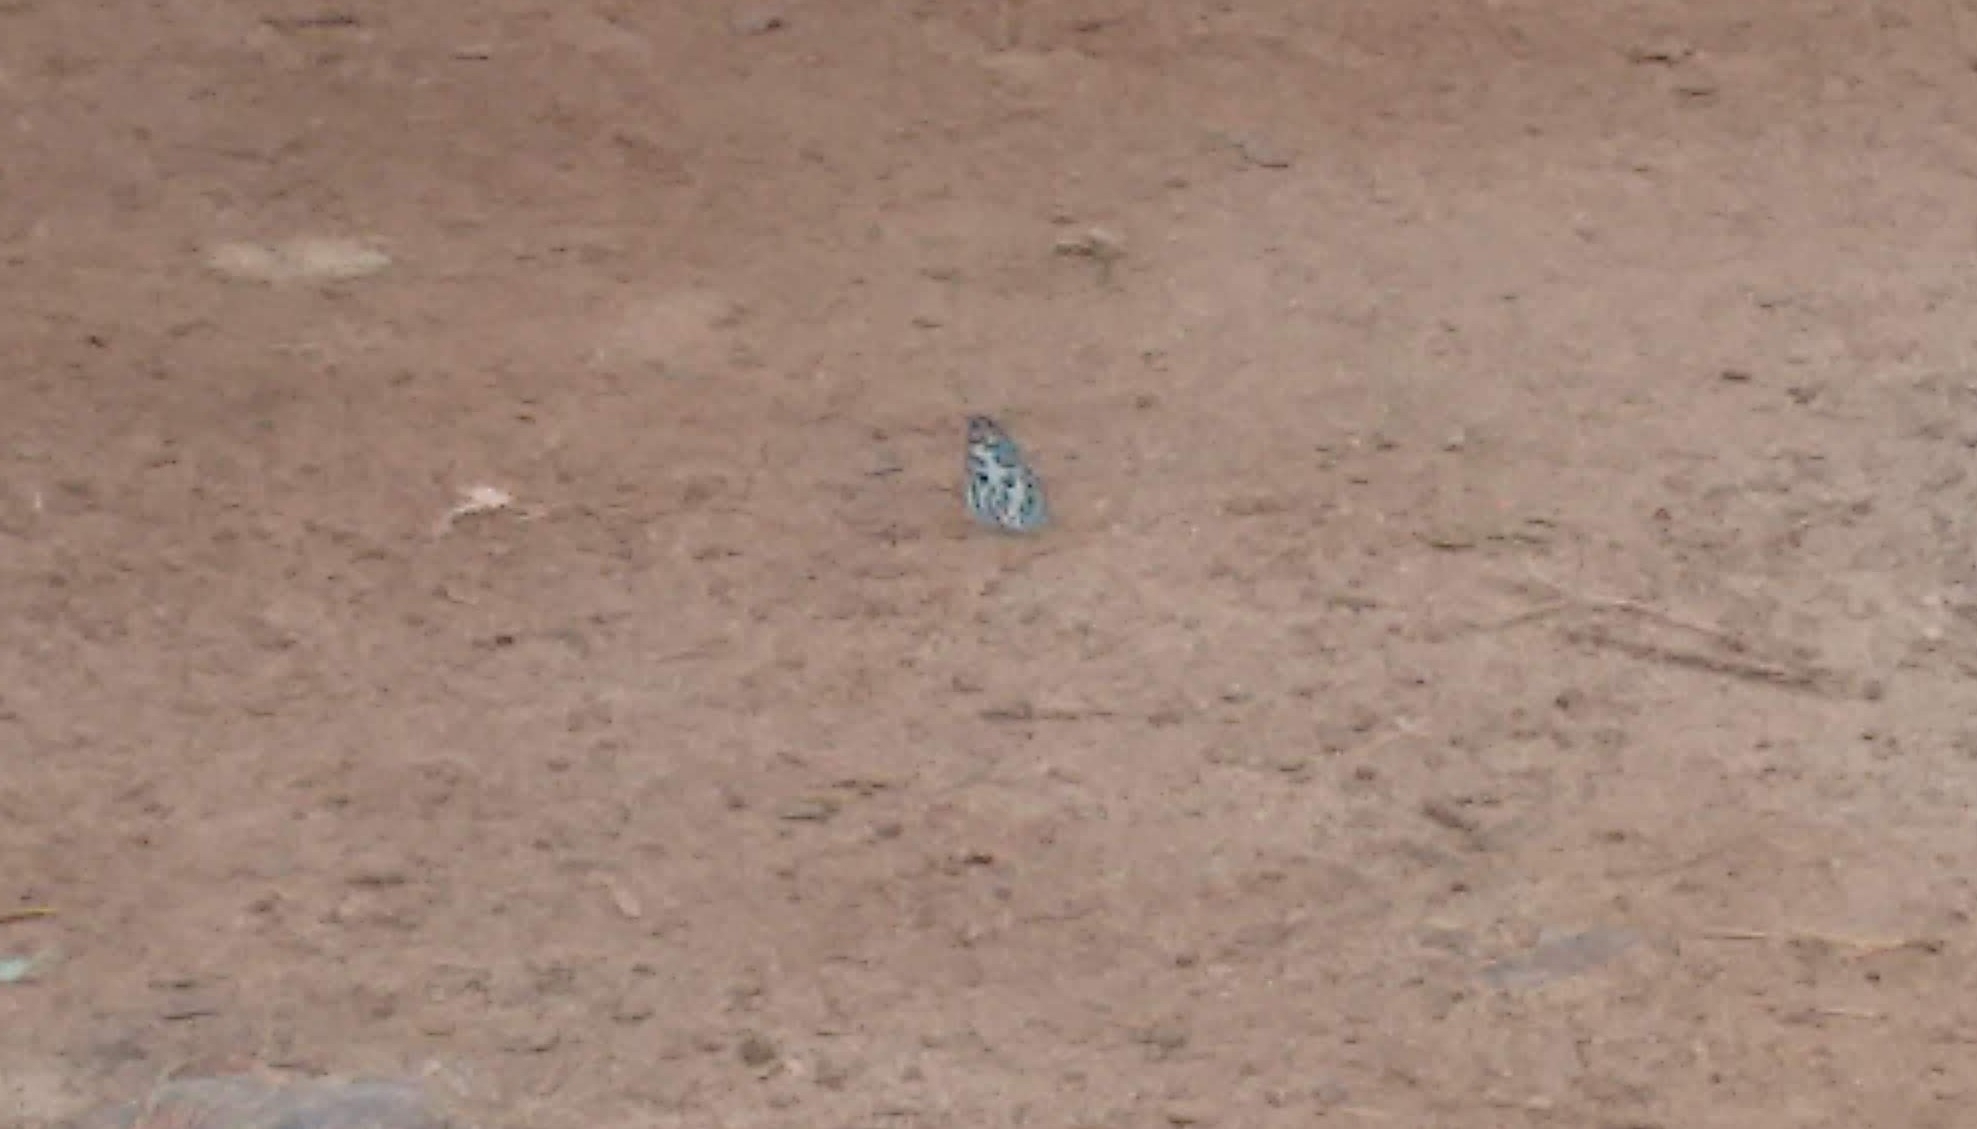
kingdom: Animalia
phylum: Arthropoda
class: Insecta
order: Lepidoptera
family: Lycaenidae
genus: Castalius
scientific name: Castalius rosimon
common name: Common pierrot
